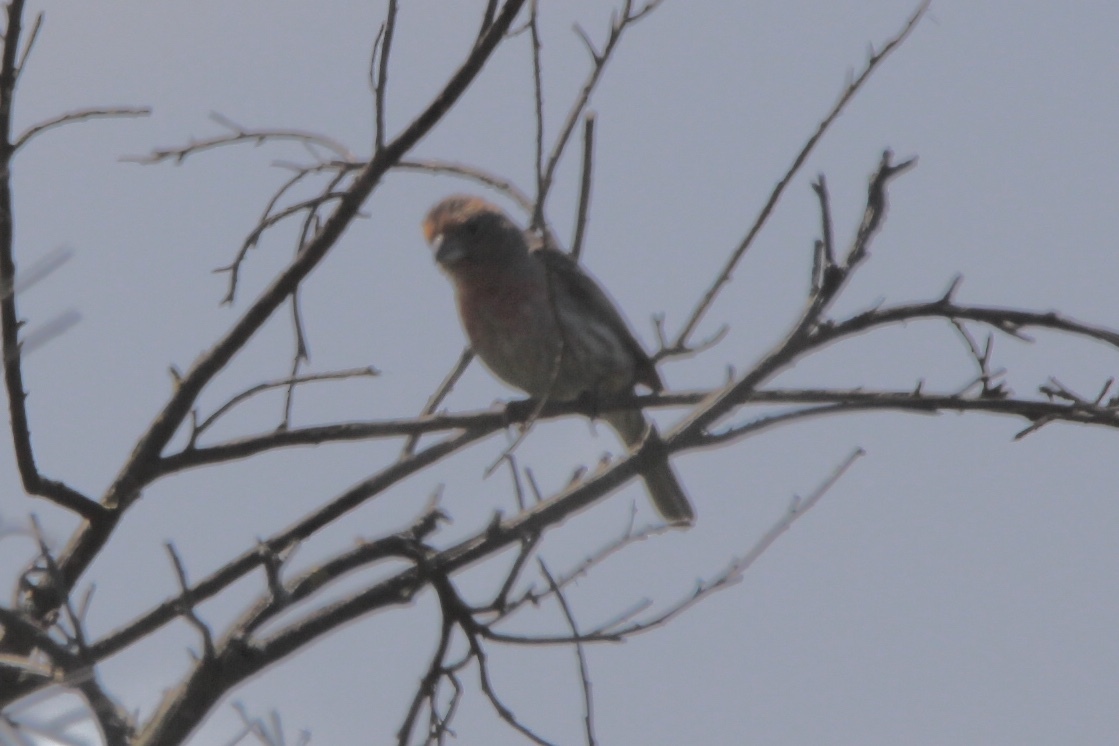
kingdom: Animalia
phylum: Chordata
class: Aves
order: Passeriformes
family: Fringillidae
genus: Haemorhous
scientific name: Haemorhous mexicanus
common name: House finch
